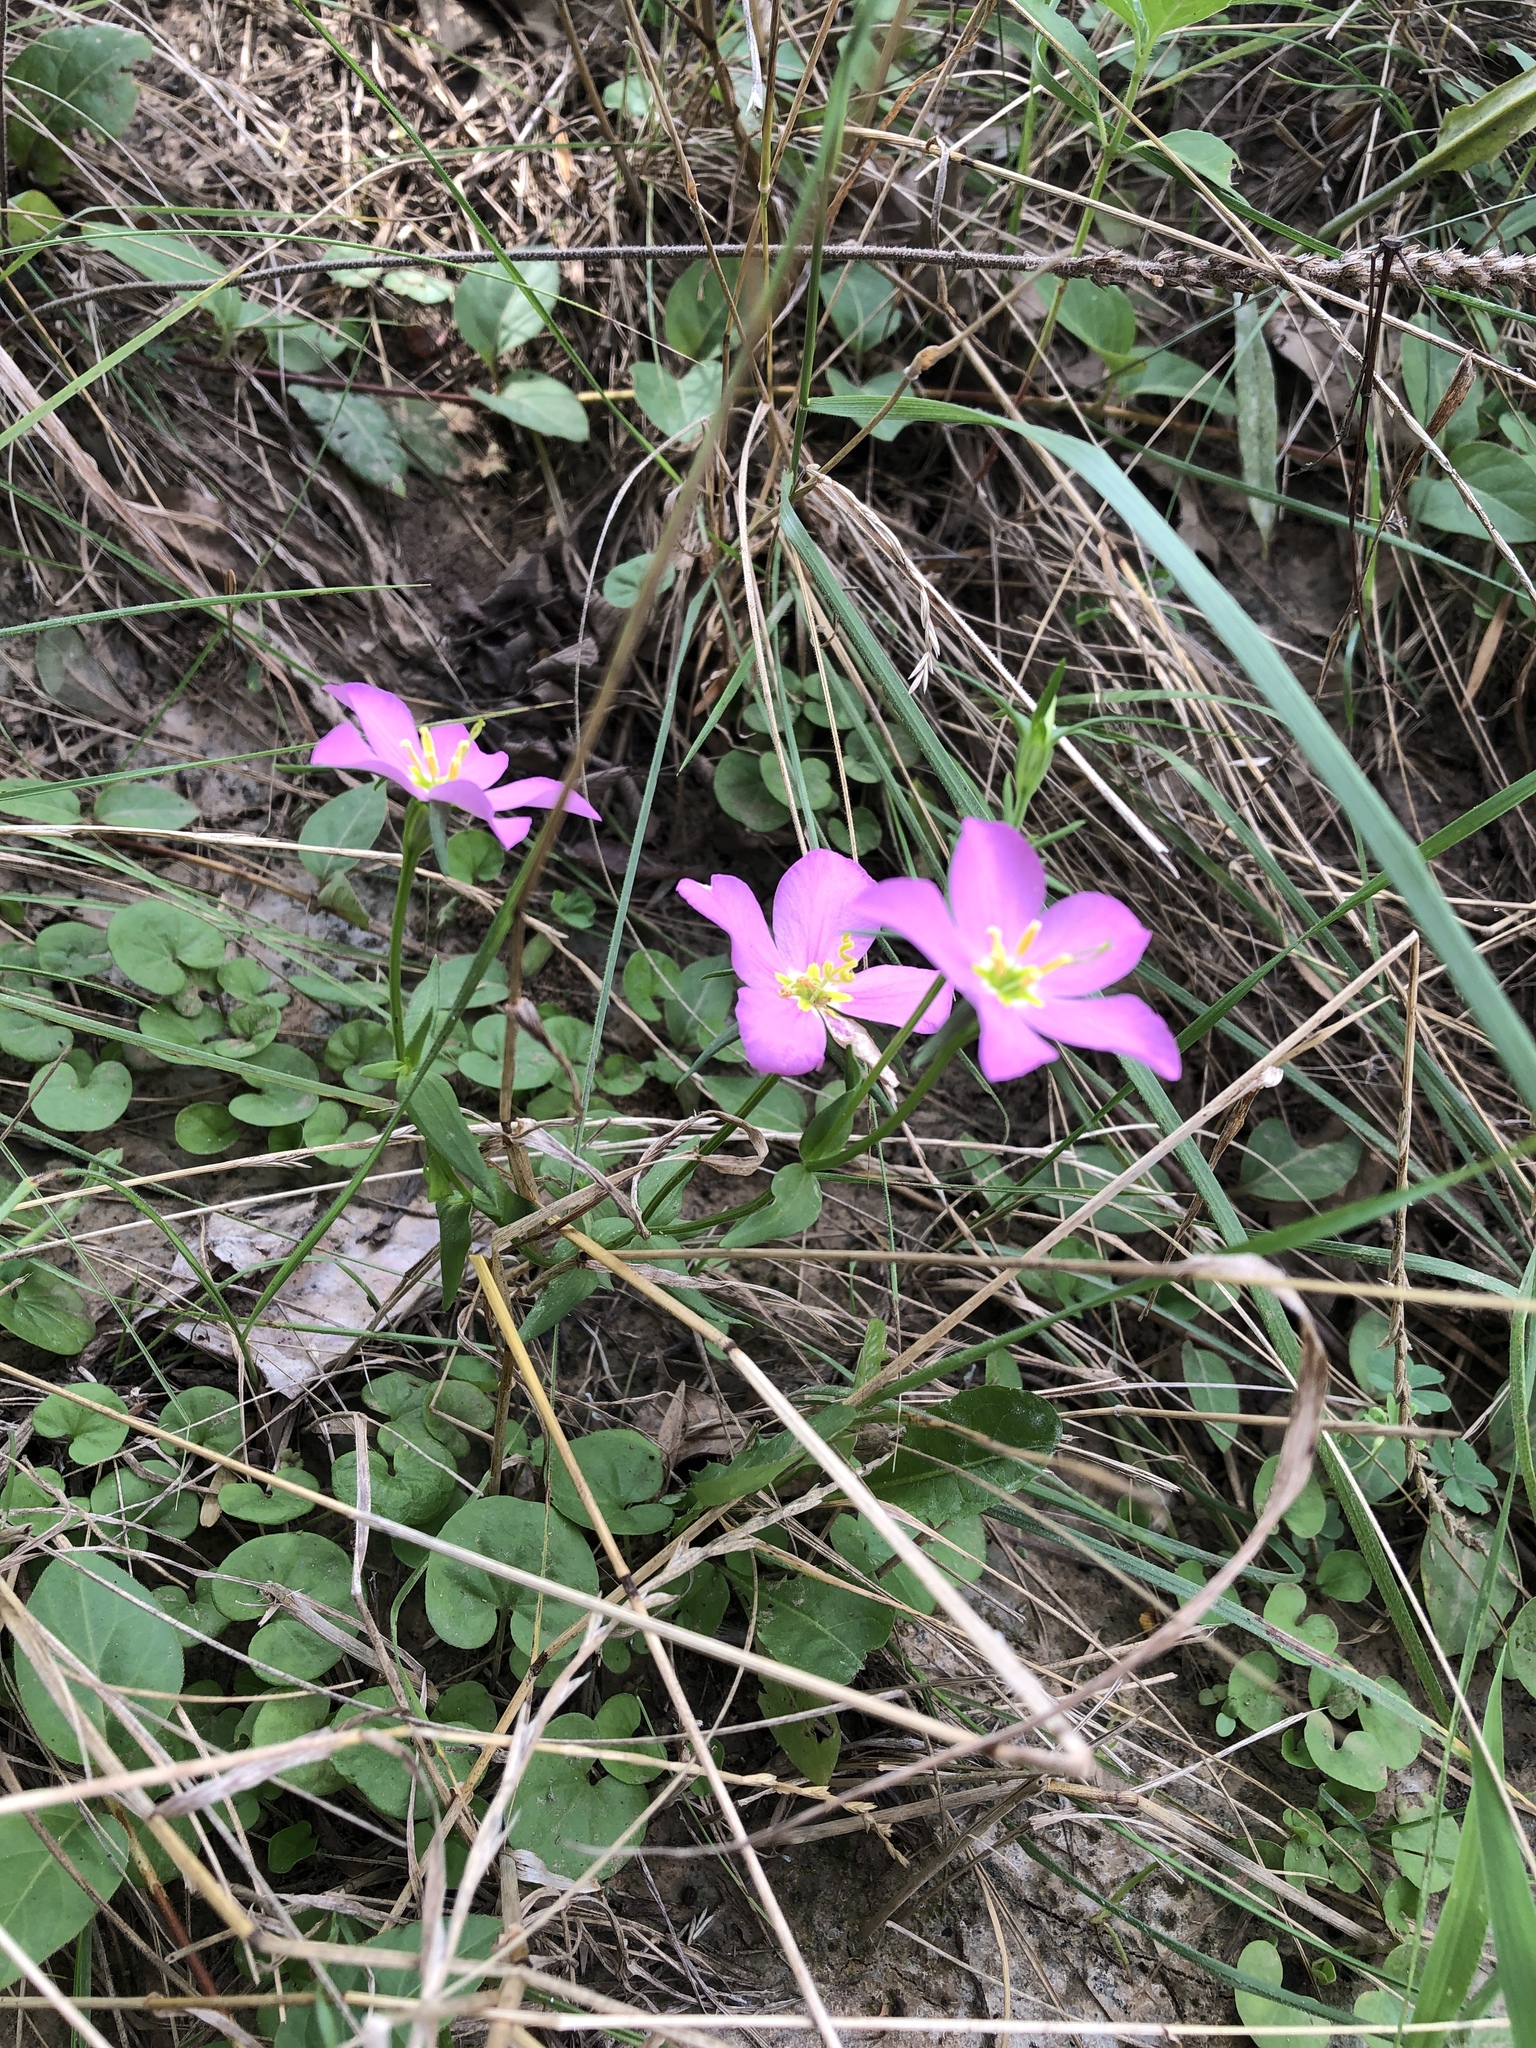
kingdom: Plantae
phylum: Tracheophyta
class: Magnoliopsida
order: Gentianales
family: Gentianaceae
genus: Sabatia
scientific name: Sabatia campestris
